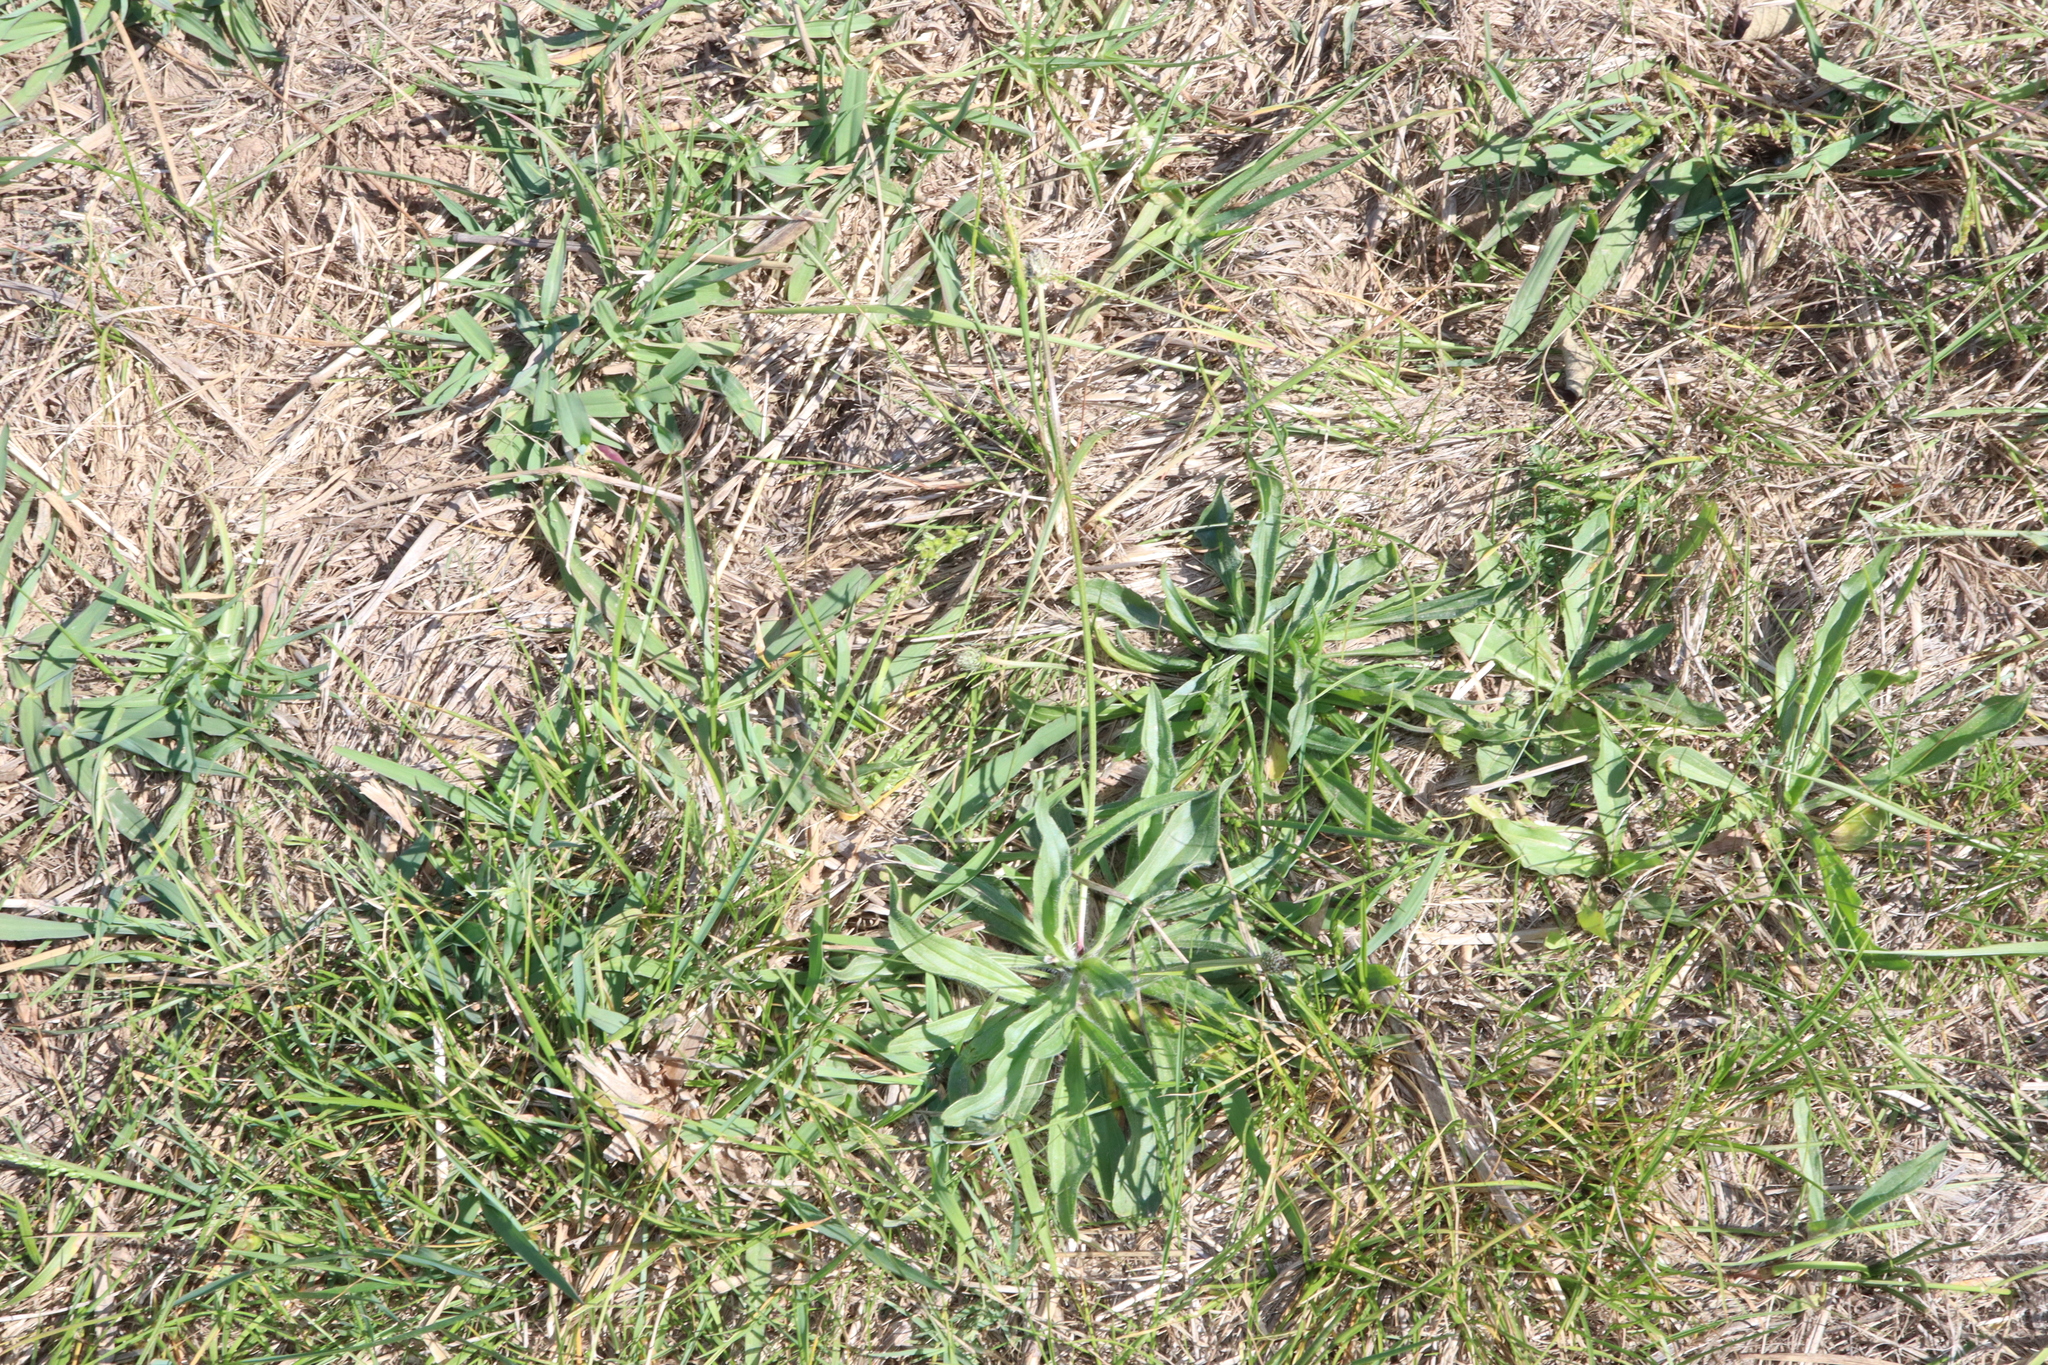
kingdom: Plantae
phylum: Tracheophyta
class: Magnoliopsida
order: Lamiales
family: Plantaginaceae
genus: Plantago
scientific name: Plantago lanceolata
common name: Ribwort plantain
